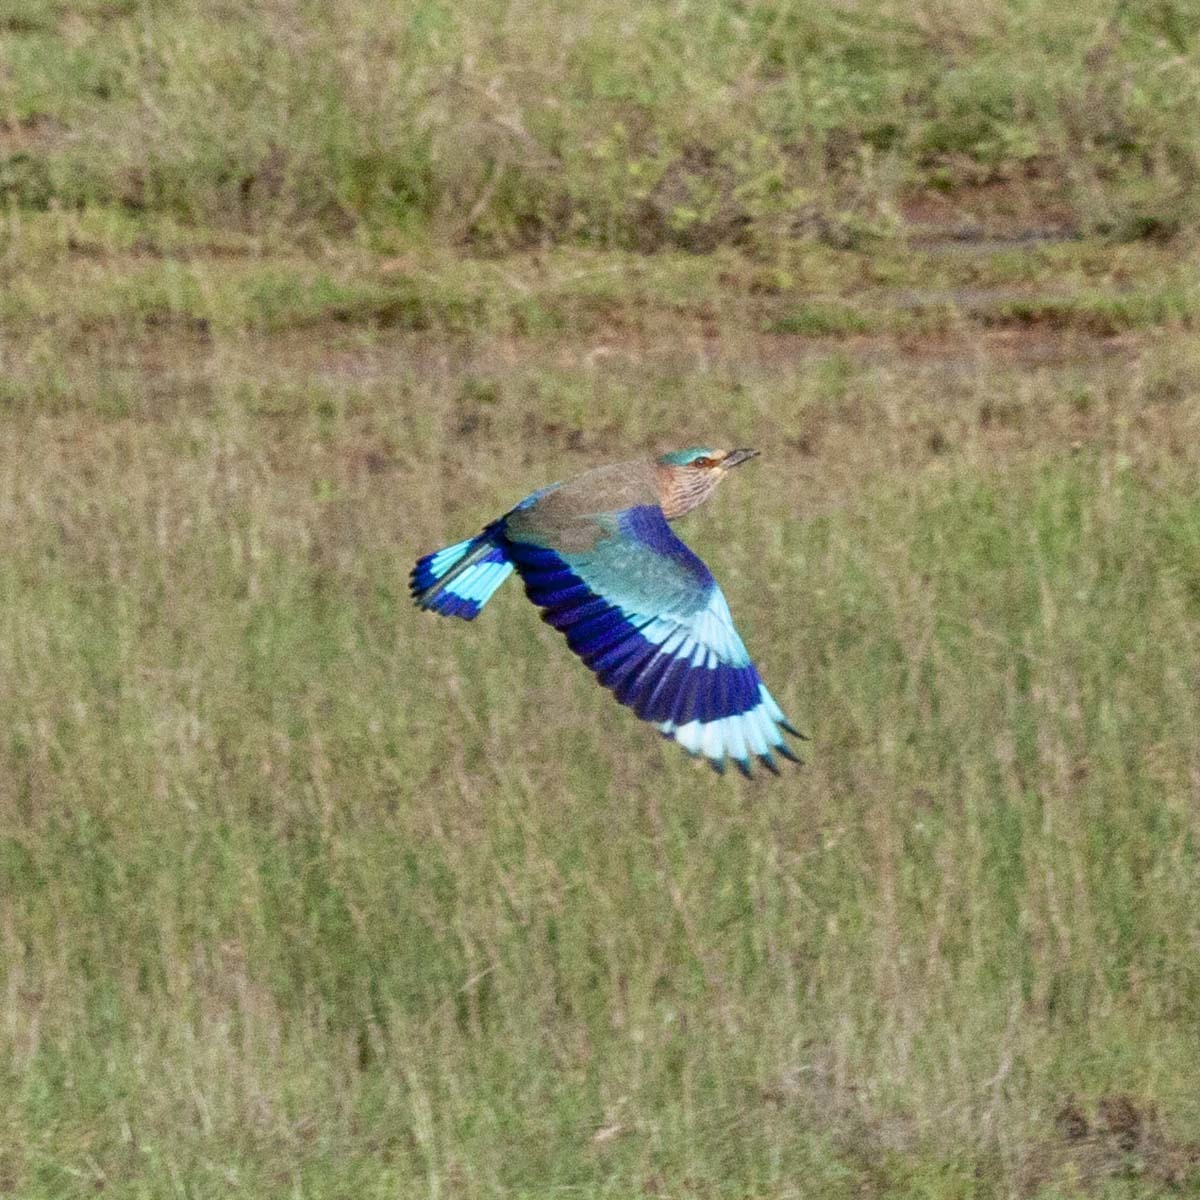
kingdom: Animalia
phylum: Chordata
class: Aves
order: Coraciiformes
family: Coraciidae
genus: Coracias
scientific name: Coracias benghalensis
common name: Indian roller
